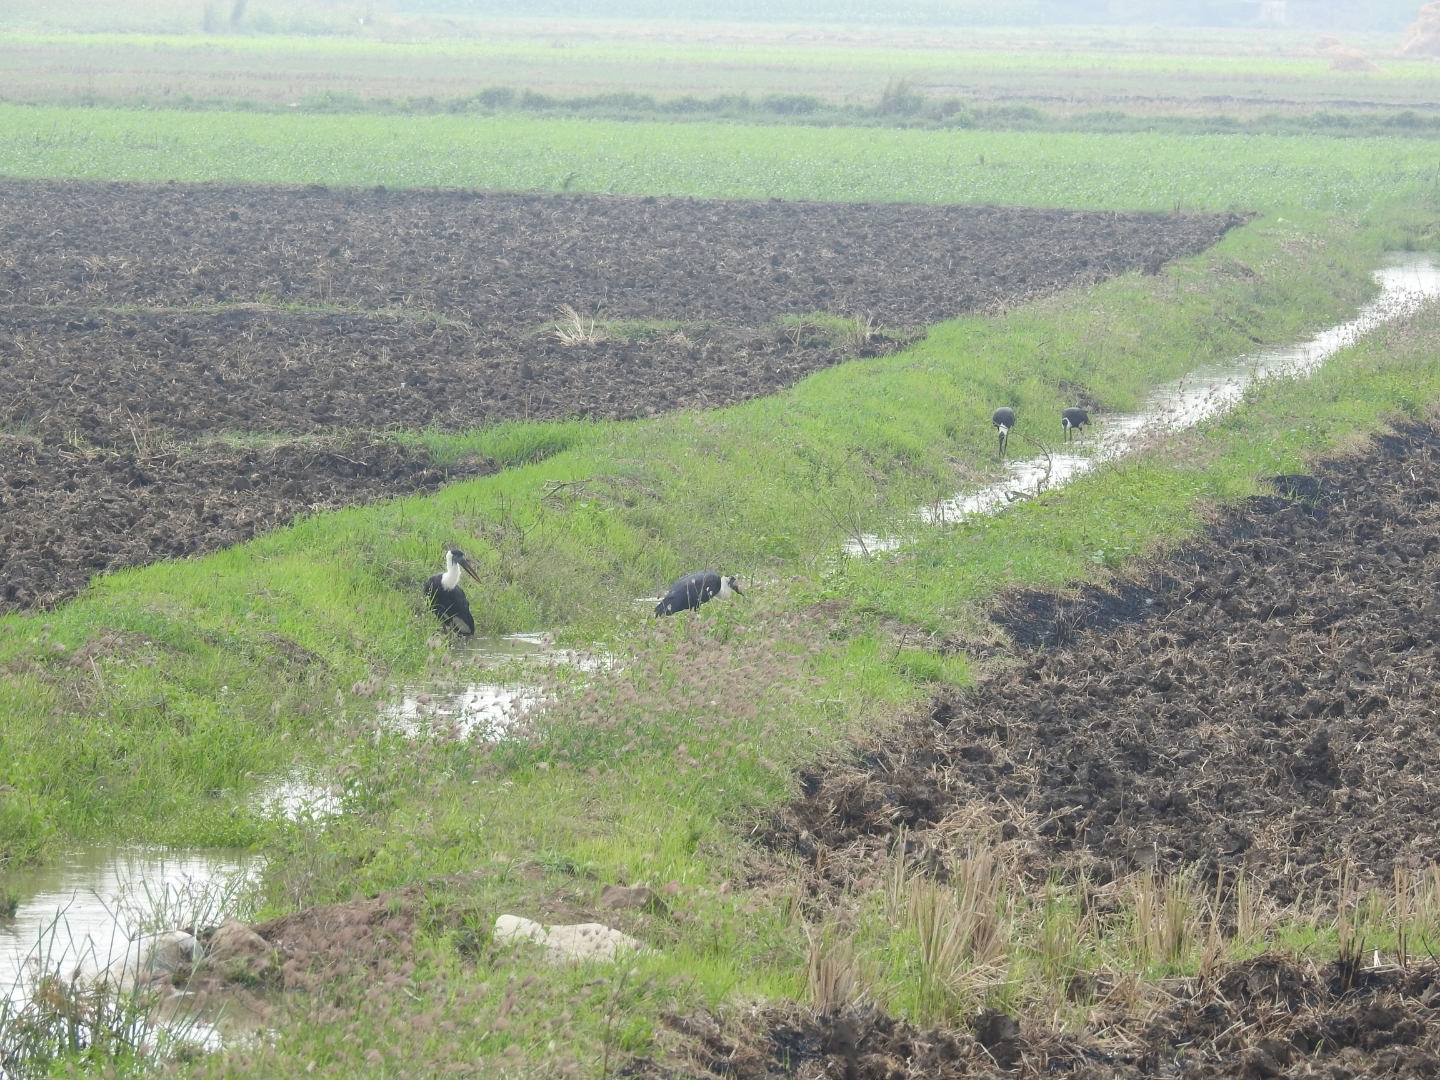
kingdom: Animalia
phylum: Chordata
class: Aves
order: Ciconiiformes
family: Ciconiidae
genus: Ciconia
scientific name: Ciconia episcopus
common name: Woolly-necked stork
